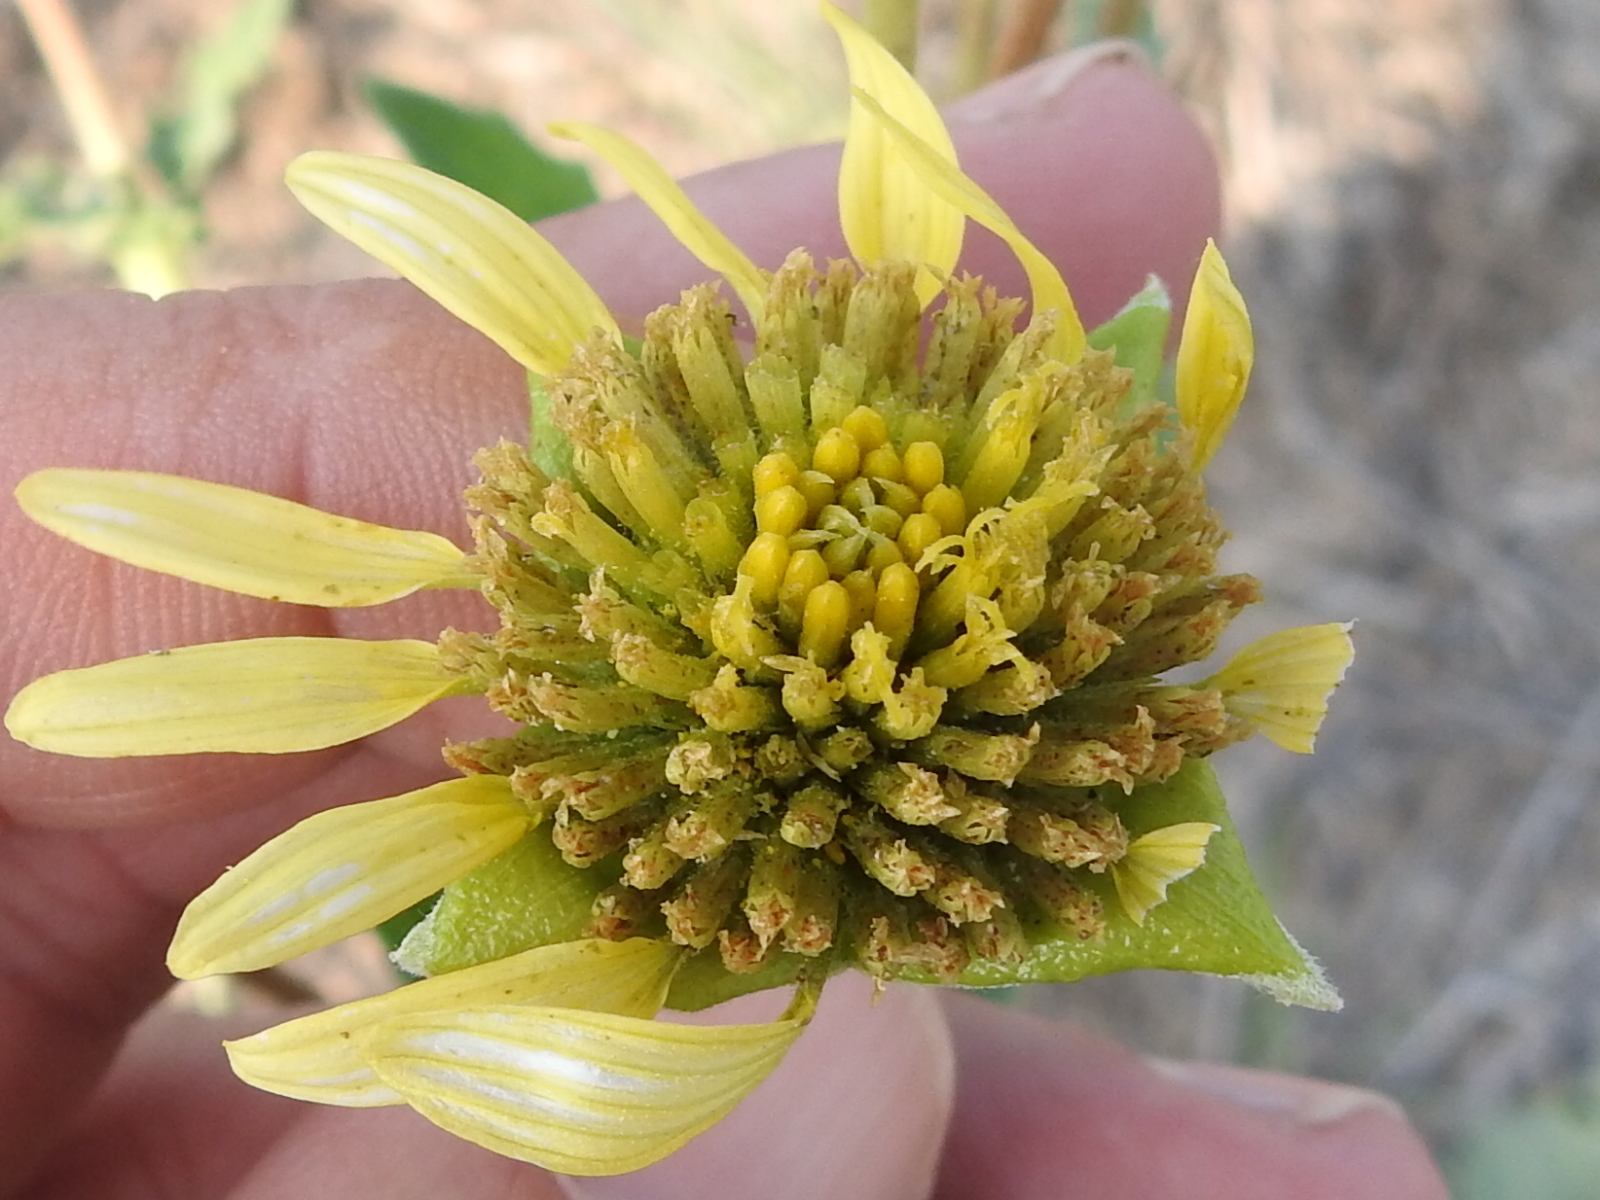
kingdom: Plantae
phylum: Tracheophyta
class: Magnoliopsida
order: Asterales
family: Asteraceae
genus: Tetragonotheca
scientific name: Tetragonotheca repanda
